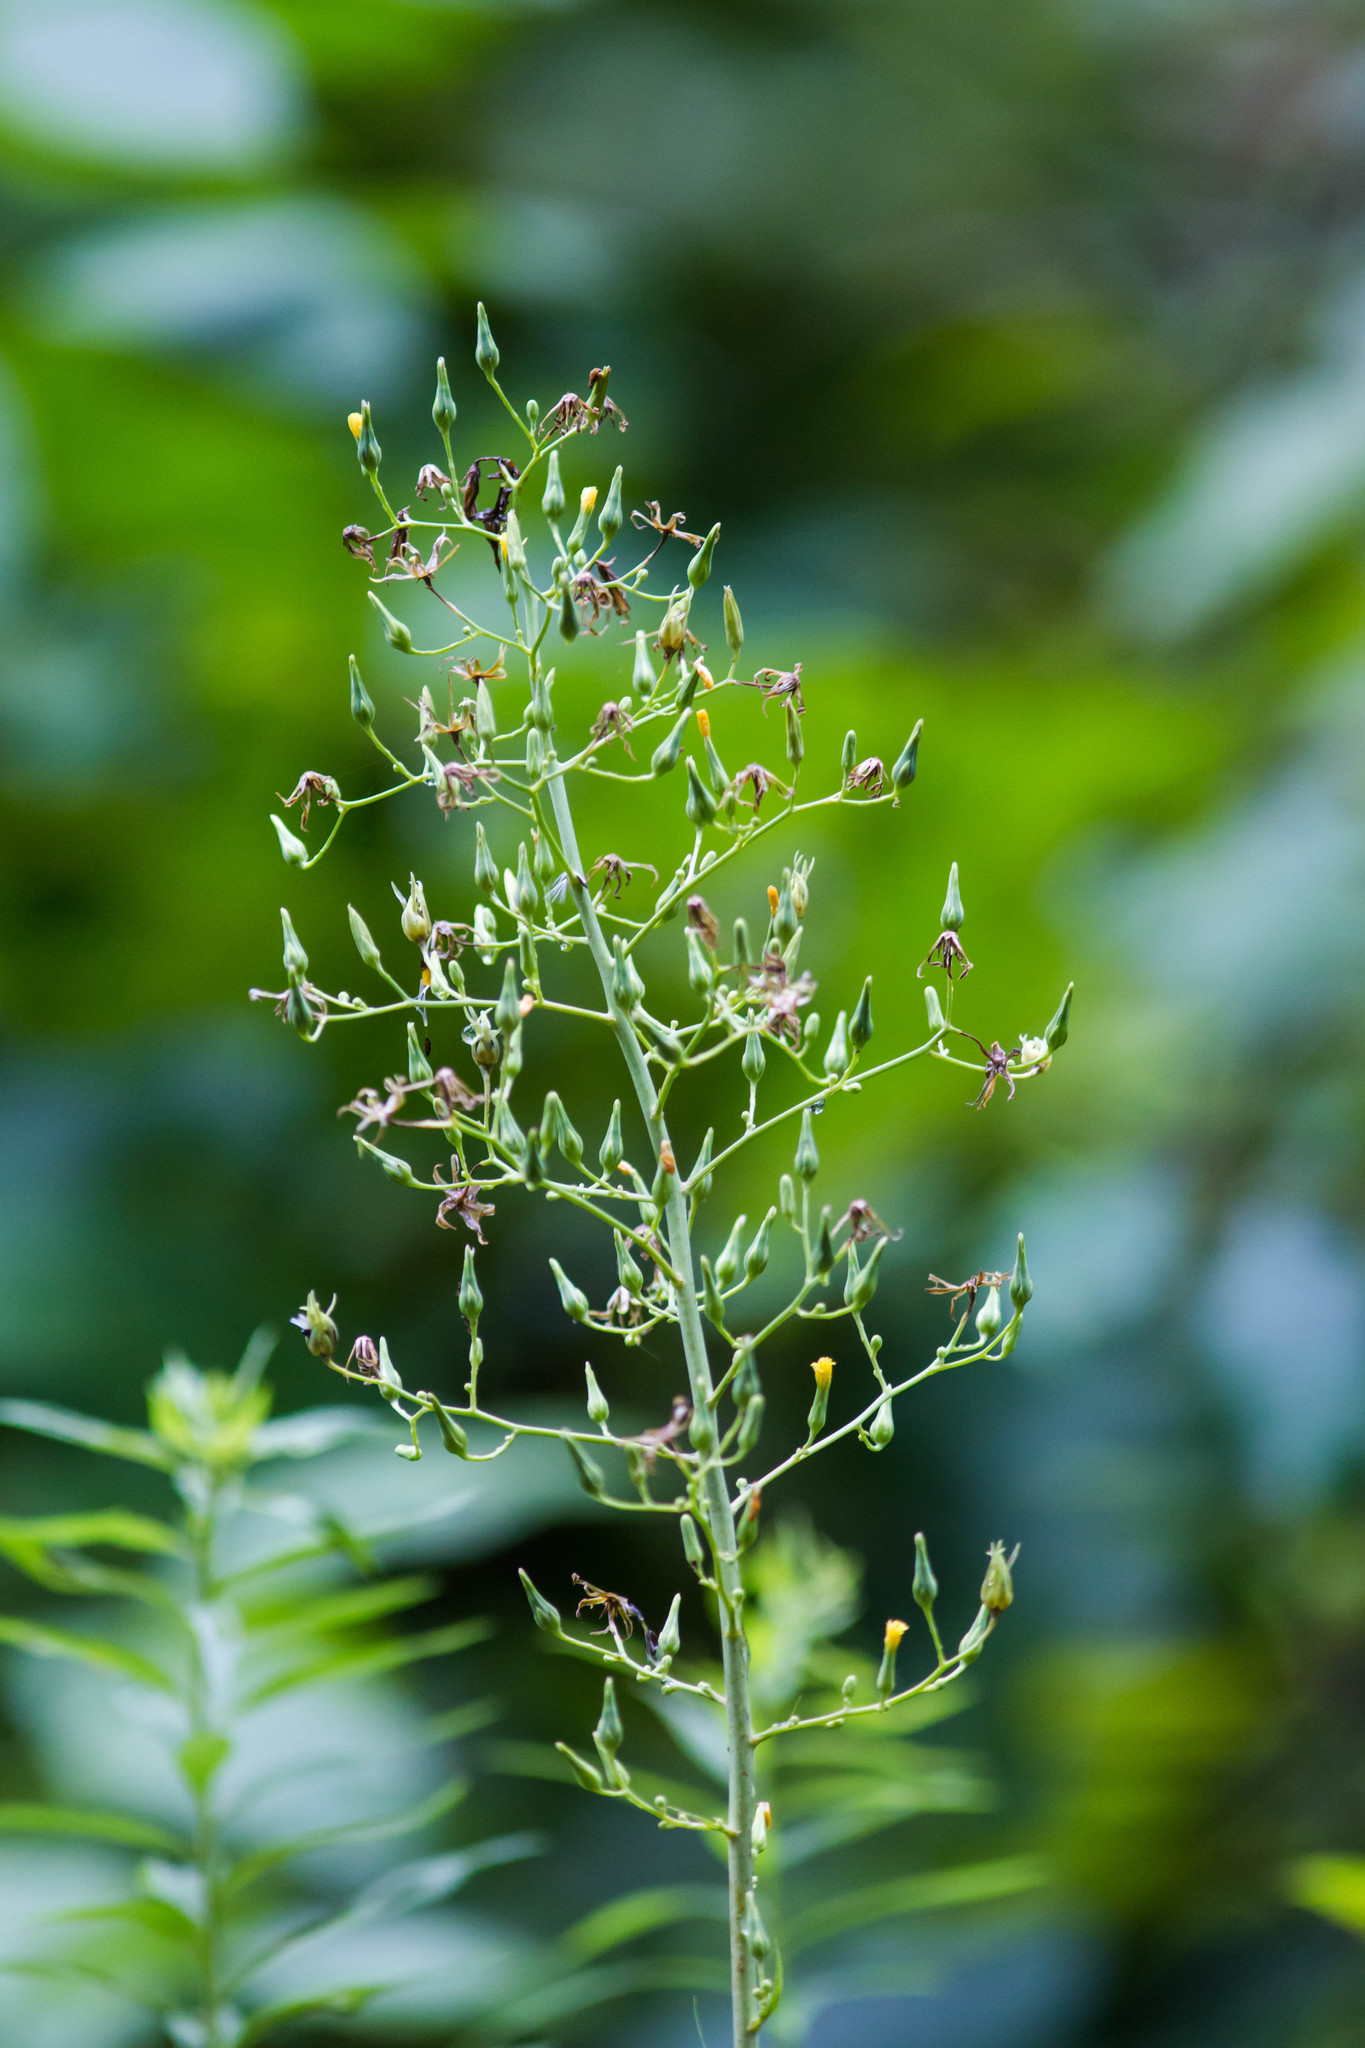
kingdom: Plantae
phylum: Tracheophyta
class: Magnoliopsida
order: Asterales
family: Asteraceae
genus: Erigeron
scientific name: Erigeron canadensis
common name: Canadian fleabane
